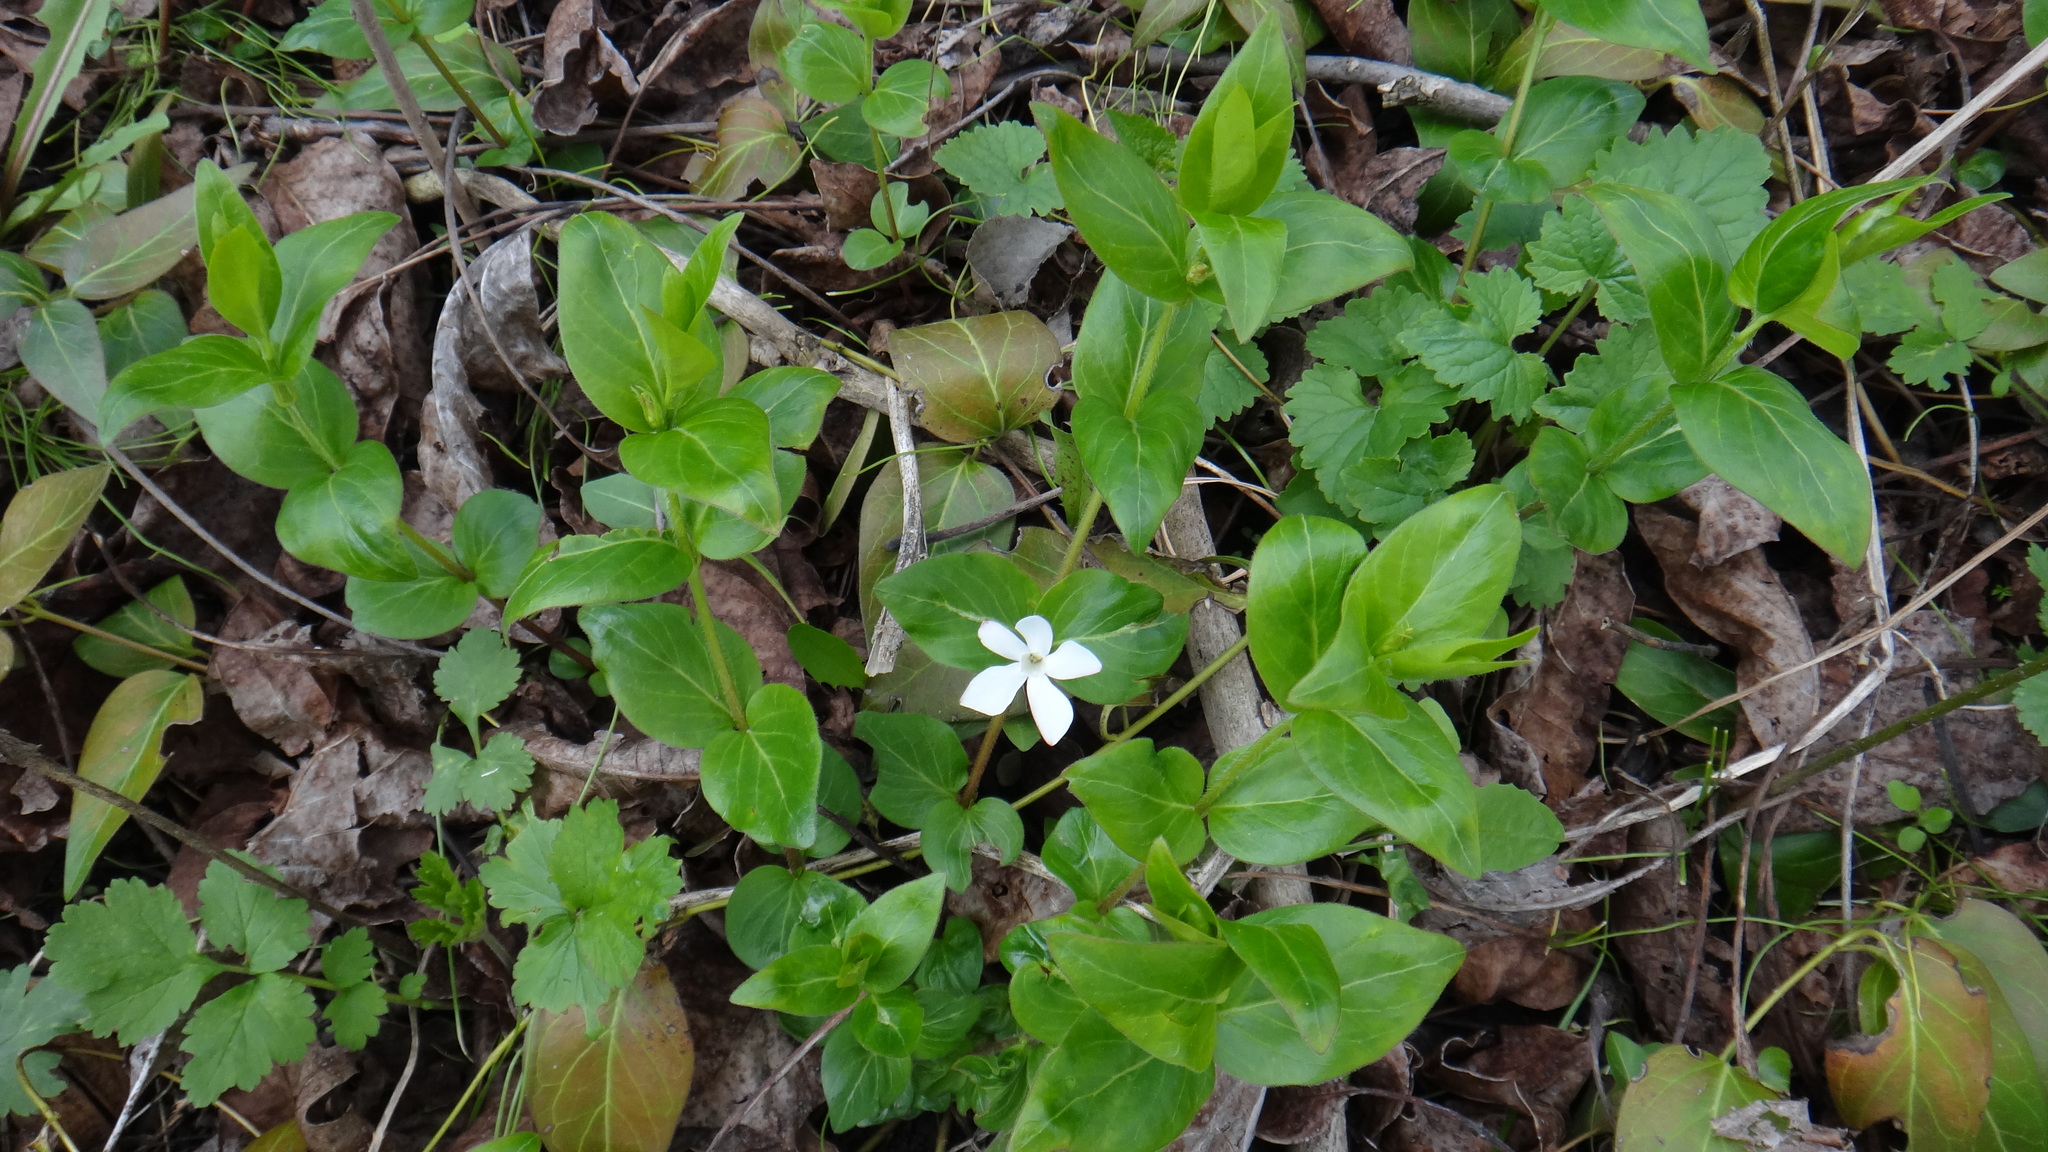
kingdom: Plantae
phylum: Tracheophyta
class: Magnoliopsida
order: Gentianales
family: Apocynaceae
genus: Vinca
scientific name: Vinca major
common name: Greater periwinkle
